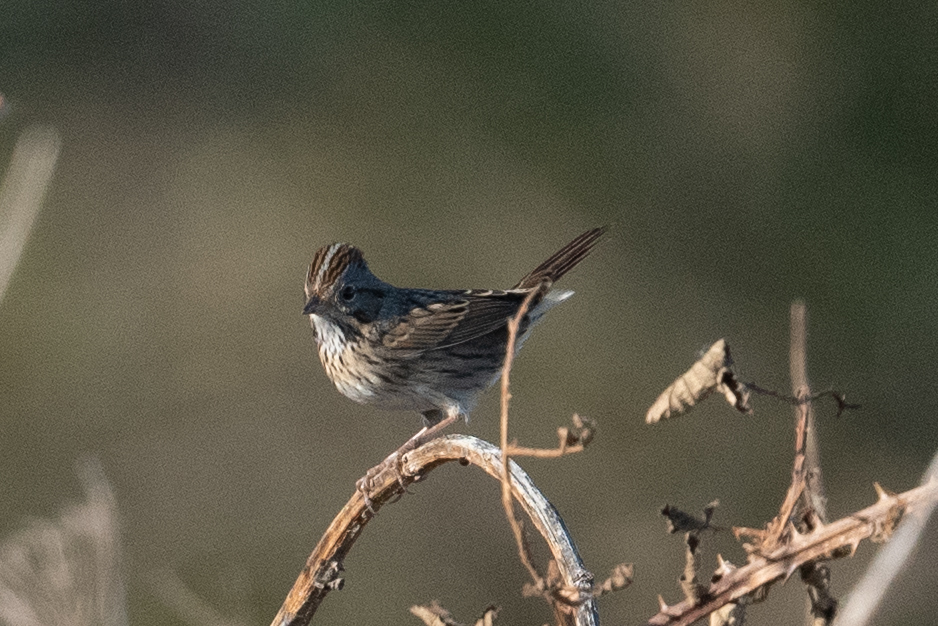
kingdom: Animalia
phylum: Chordata
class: Aves
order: Passeriformes
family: Passerellidae
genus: Melospiza
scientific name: Melospiza lincolnii
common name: Lincoln's sparrow
